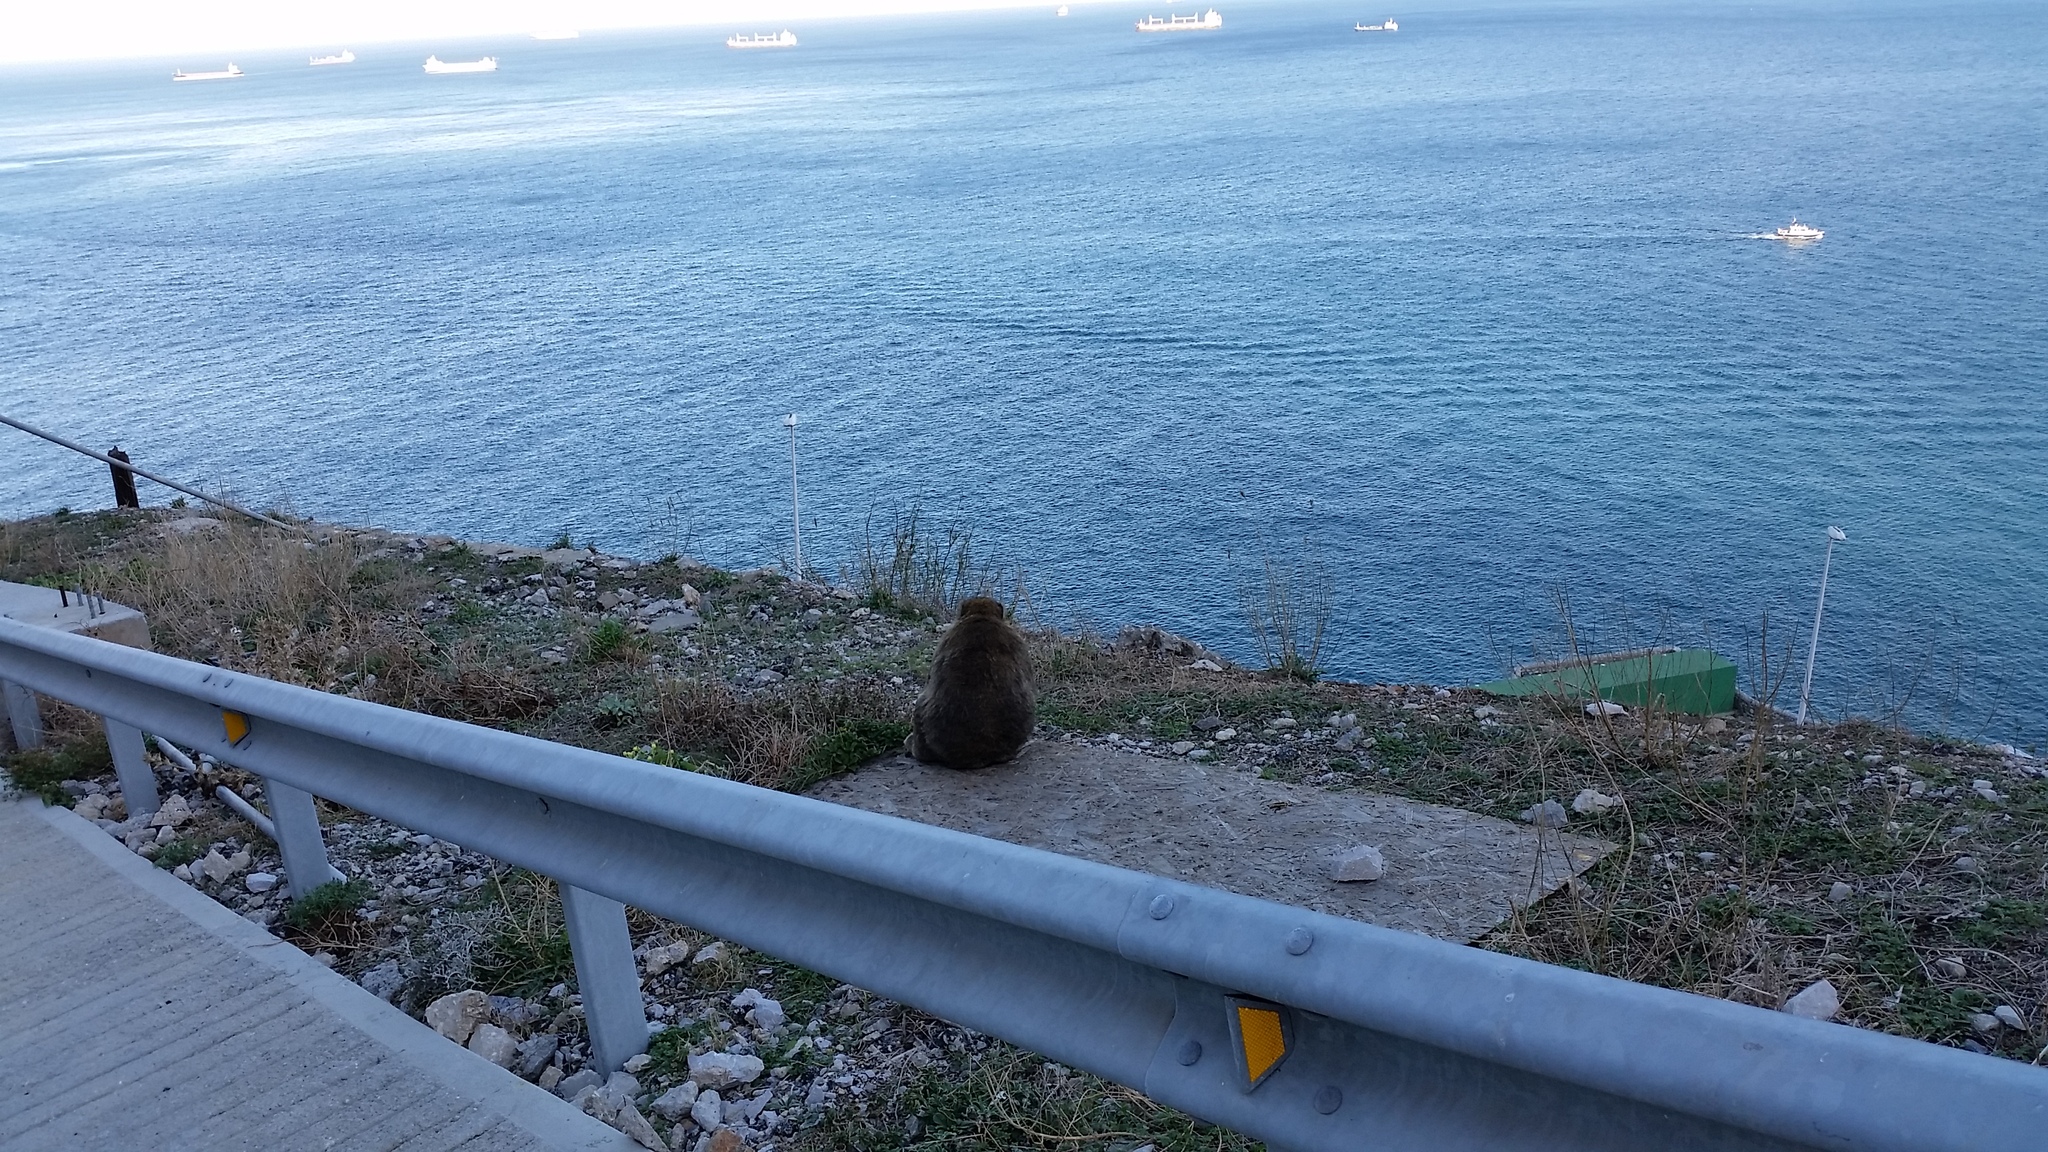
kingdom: Animalia
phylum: Chordata
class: Mammalia
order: Primates
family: Cercopithecidae
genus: Macaca
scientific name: Macaca sylvanus
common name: Barbary macaque
